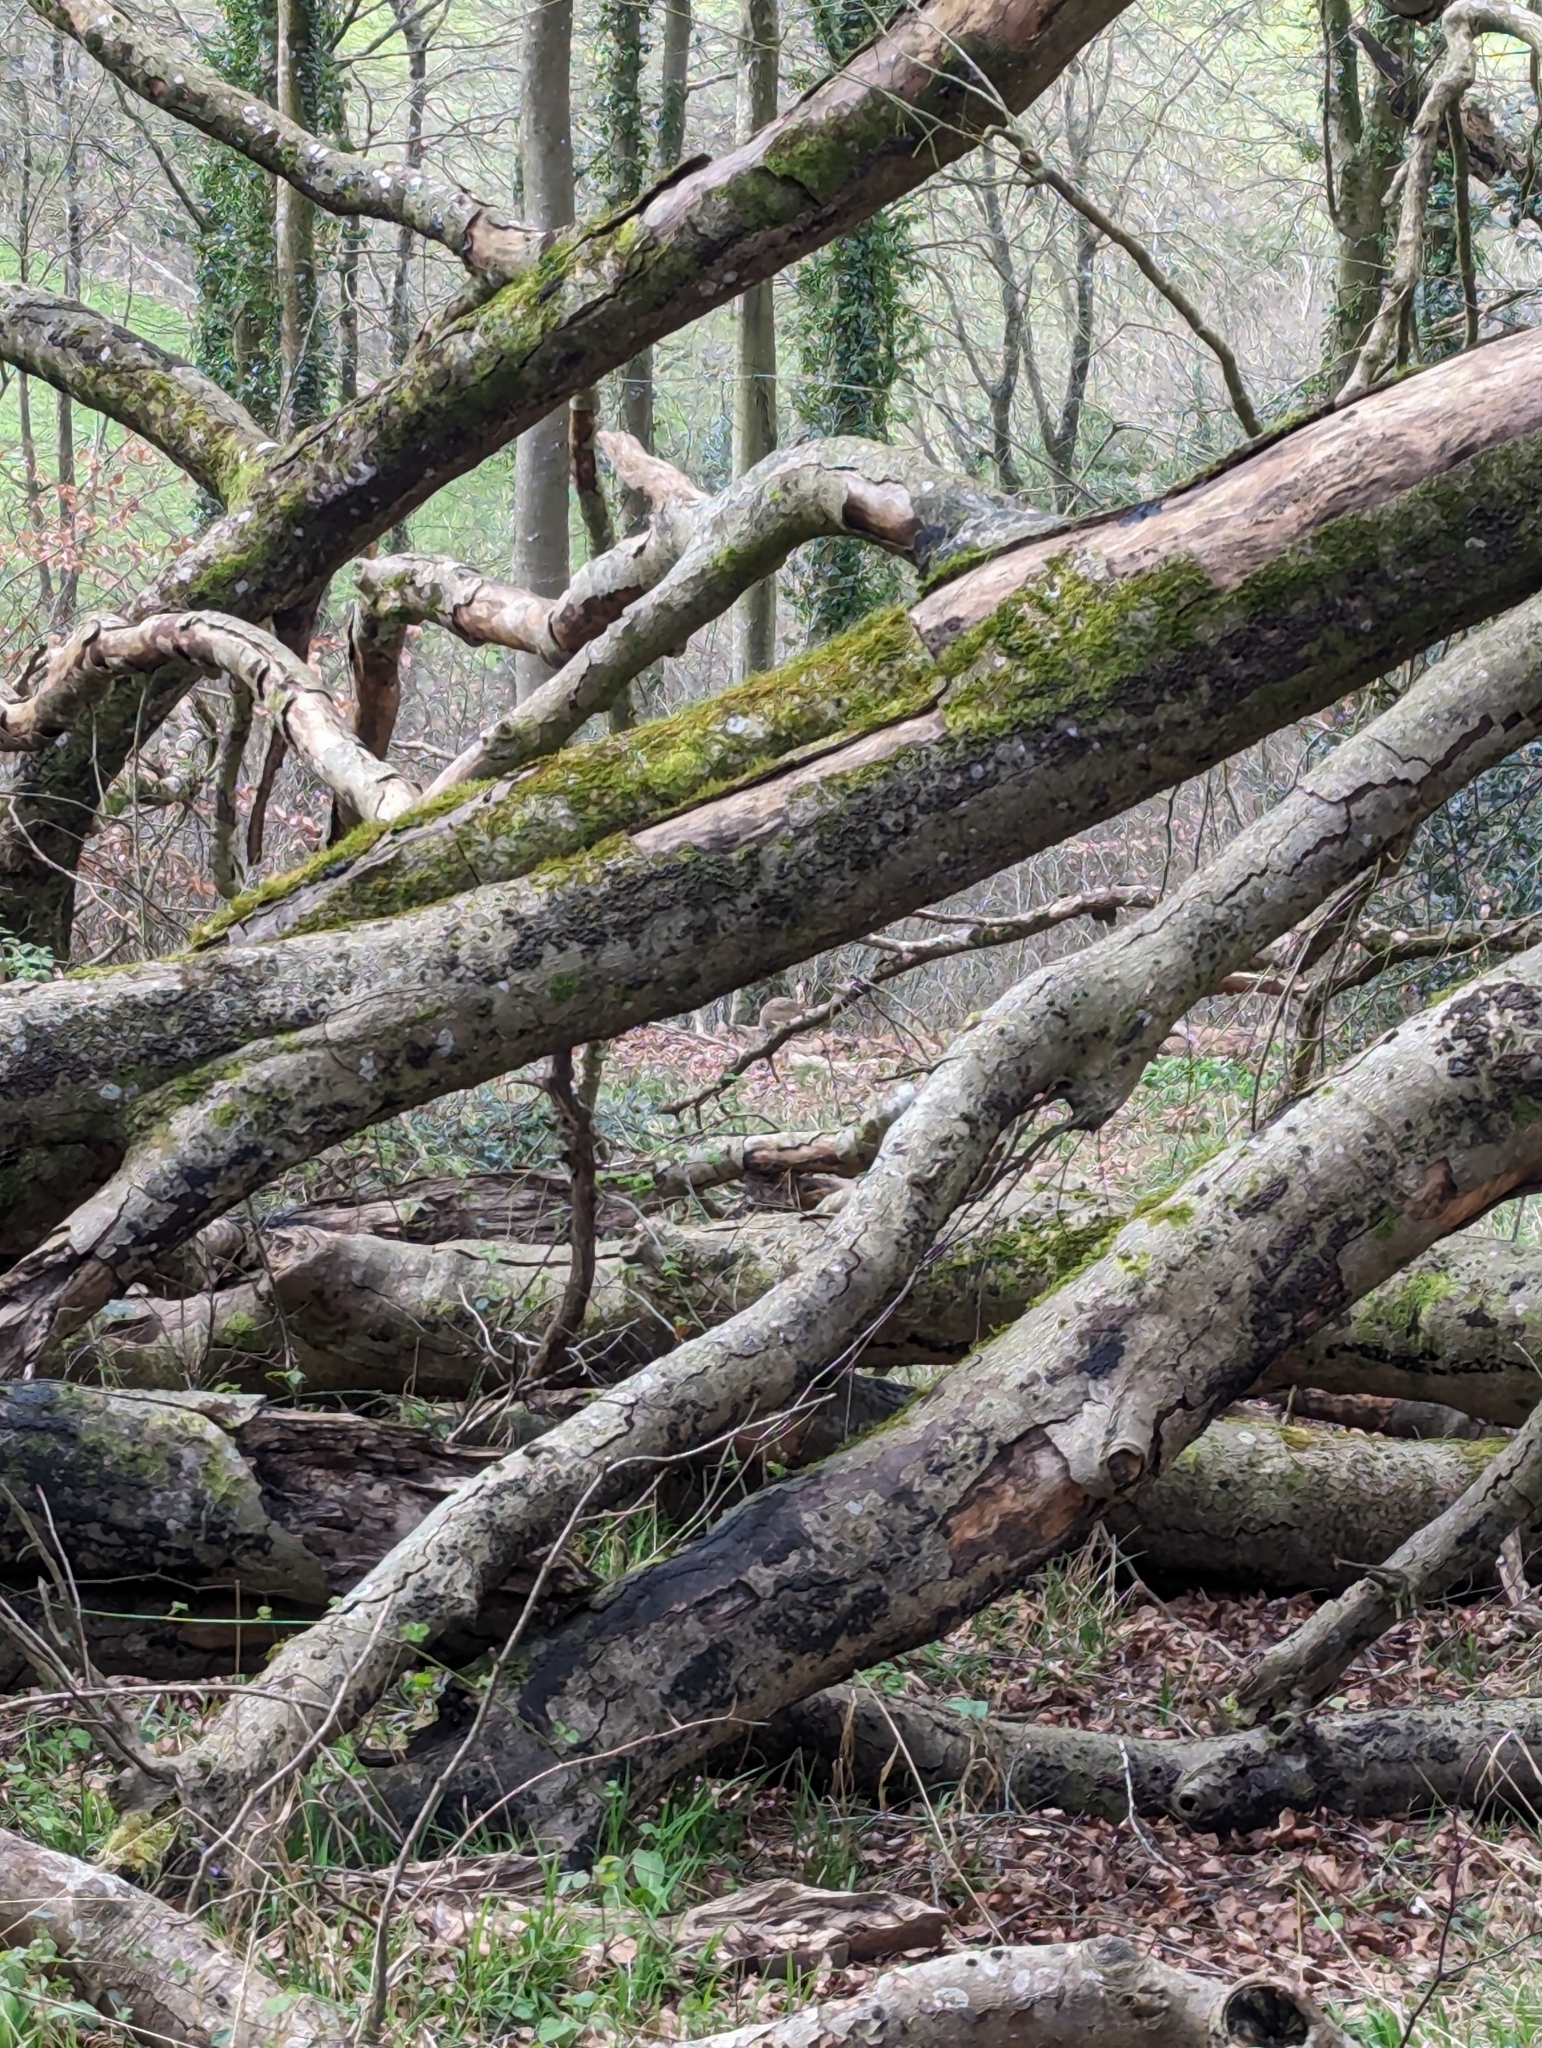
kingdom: Animalia
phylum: Chordata
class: Mammalia
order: Lagomorpha
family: Leporidae
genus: Lepus
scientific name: Lepus europaeus
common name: European hare
